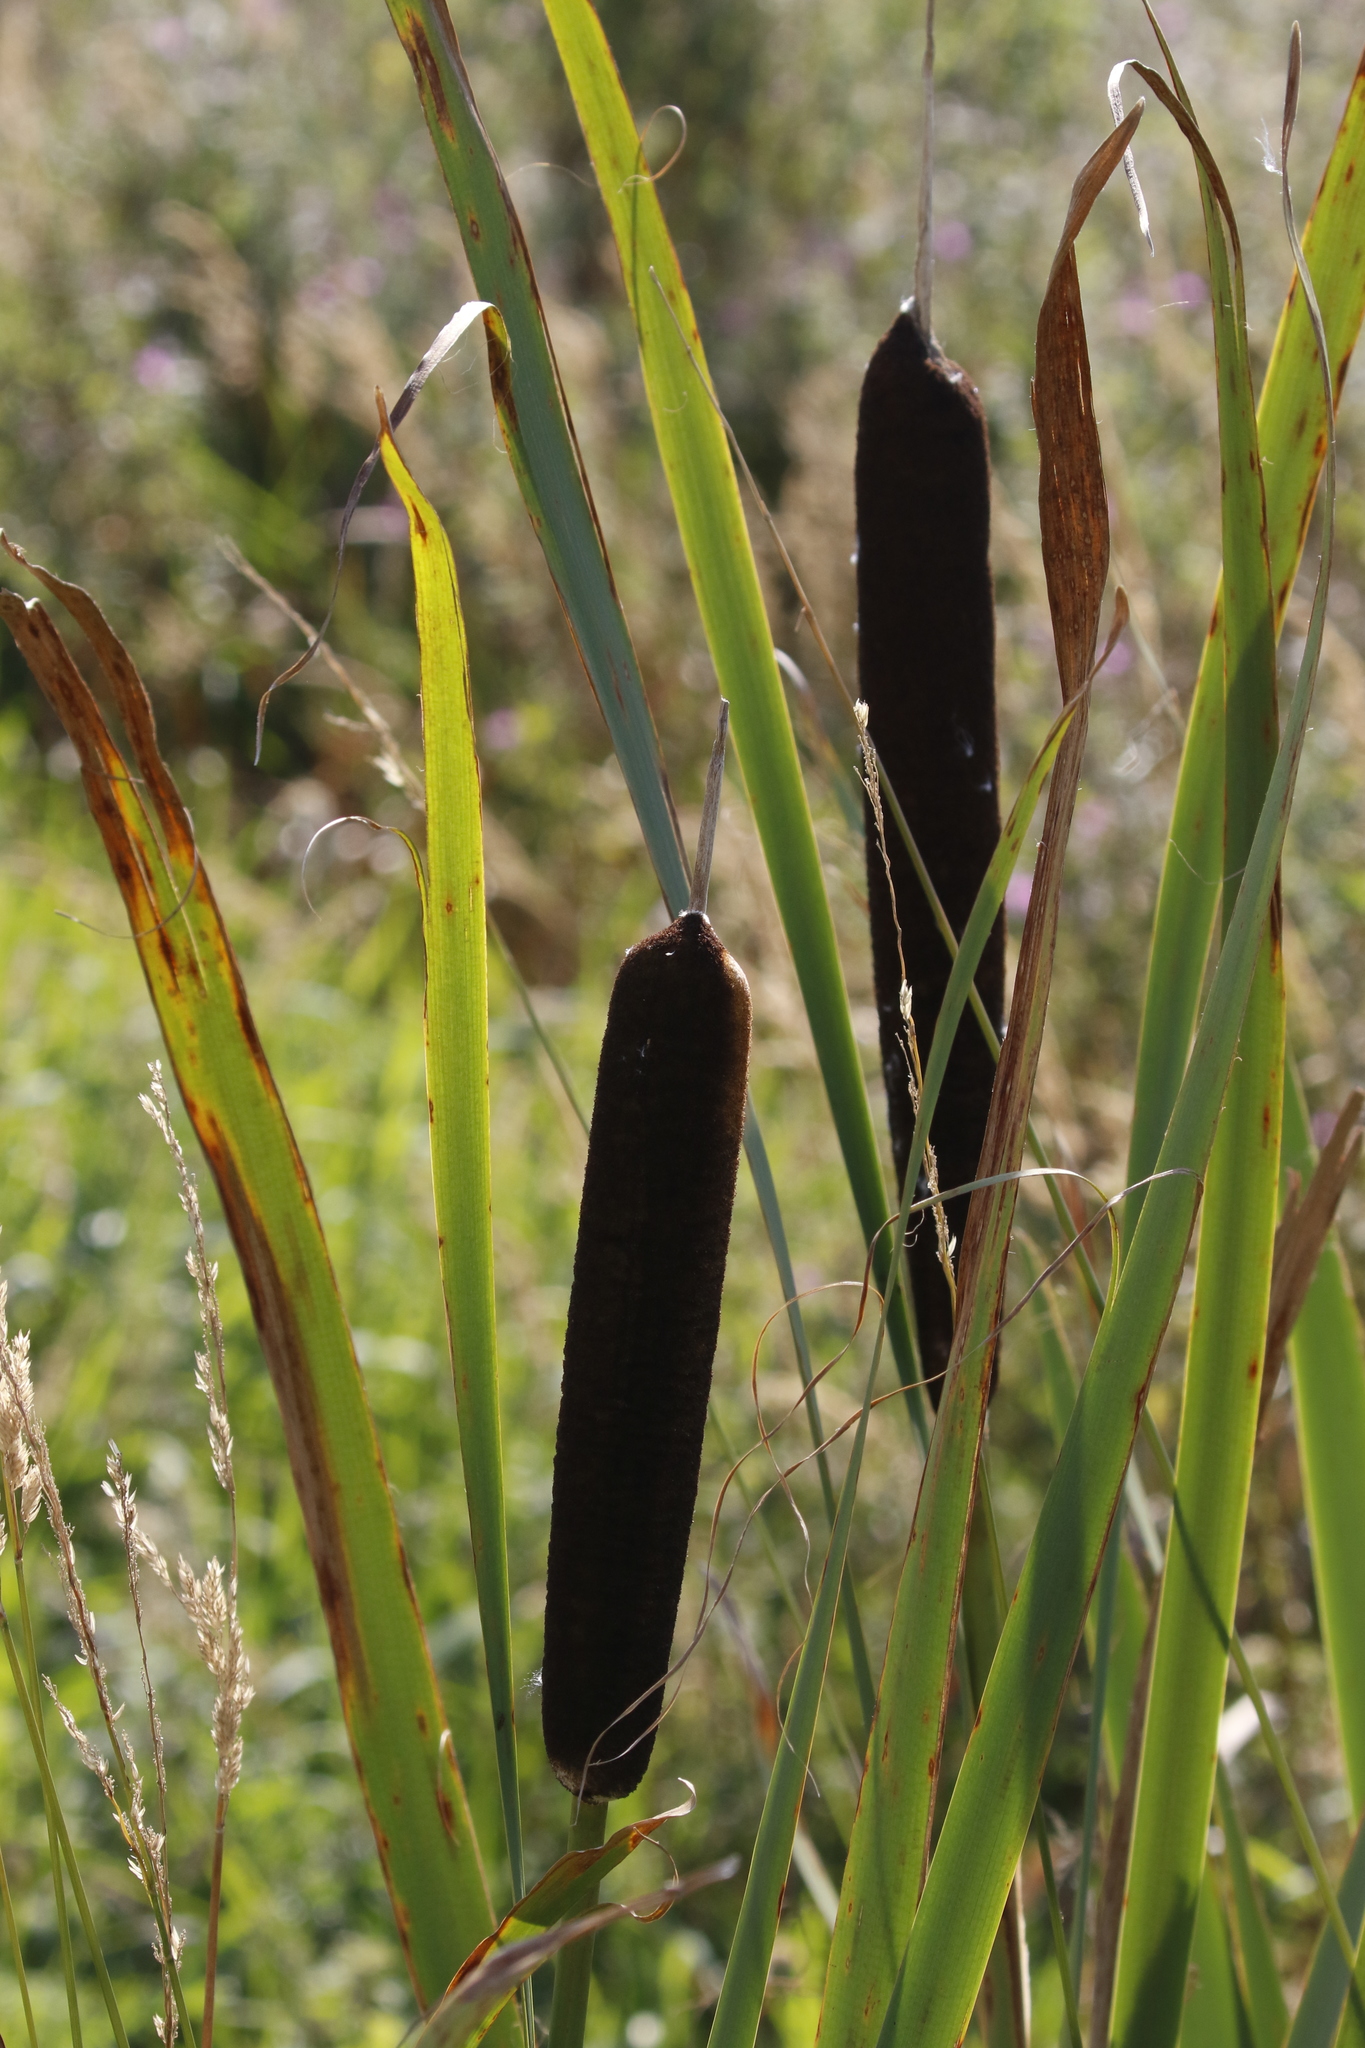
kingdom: Plantae
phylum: Tracheophyta
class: Liliopsida
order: Poales
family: Typhaceae
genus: Typha
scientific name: Typha latifolia
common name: Broadleaf cattail
